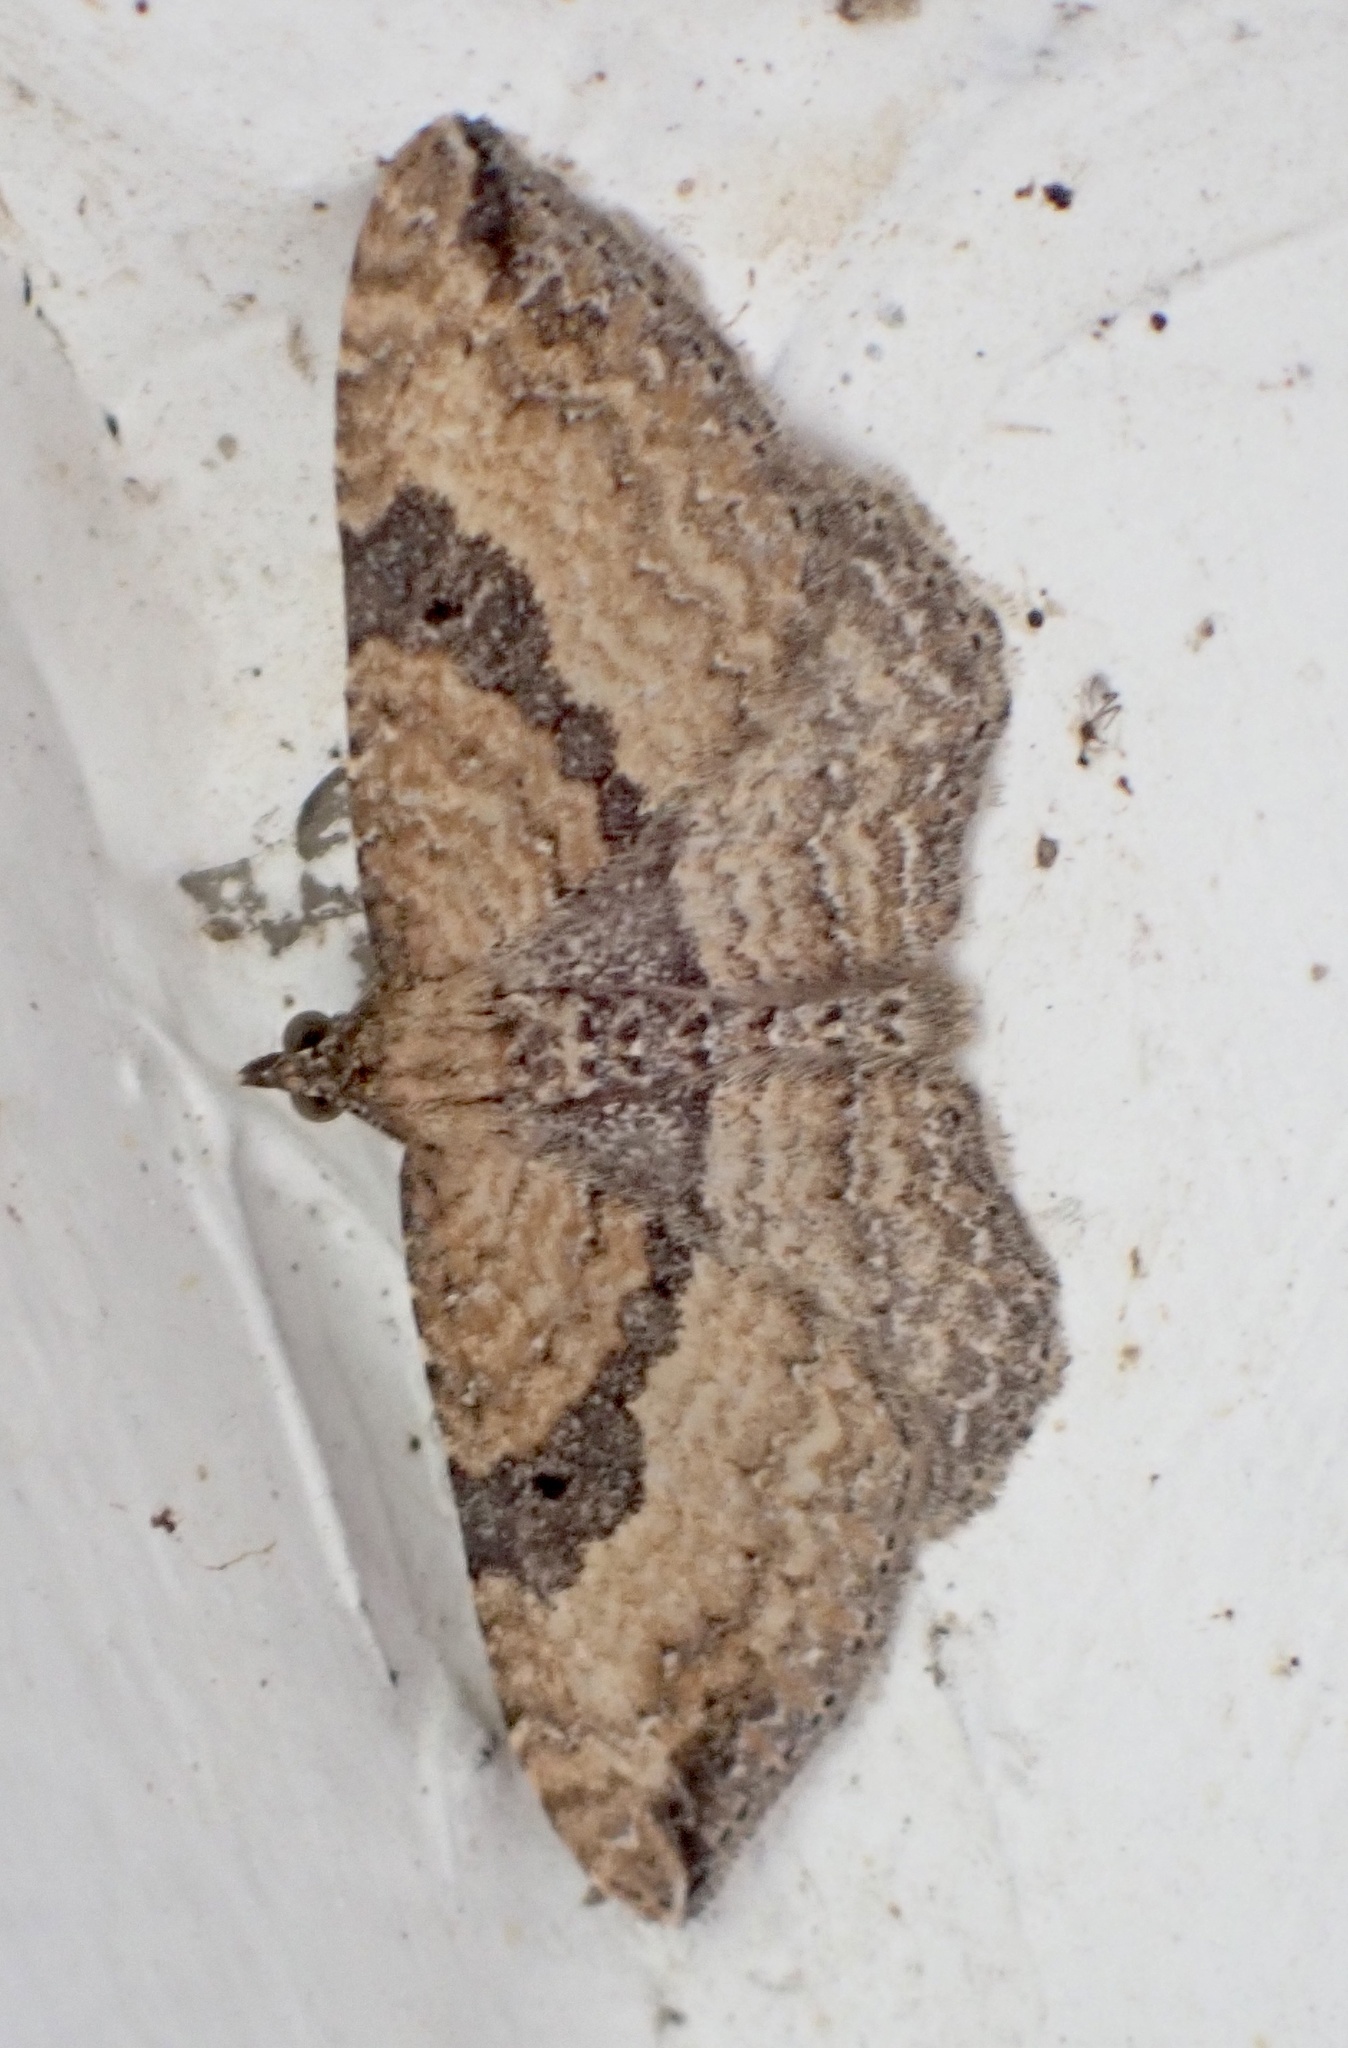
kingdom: Animalia
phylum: Arthropoda
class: Insecta
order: Lepidoptera
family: Geometridae
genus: Orthonama
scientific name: Orthonama obstipata
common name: The gem
